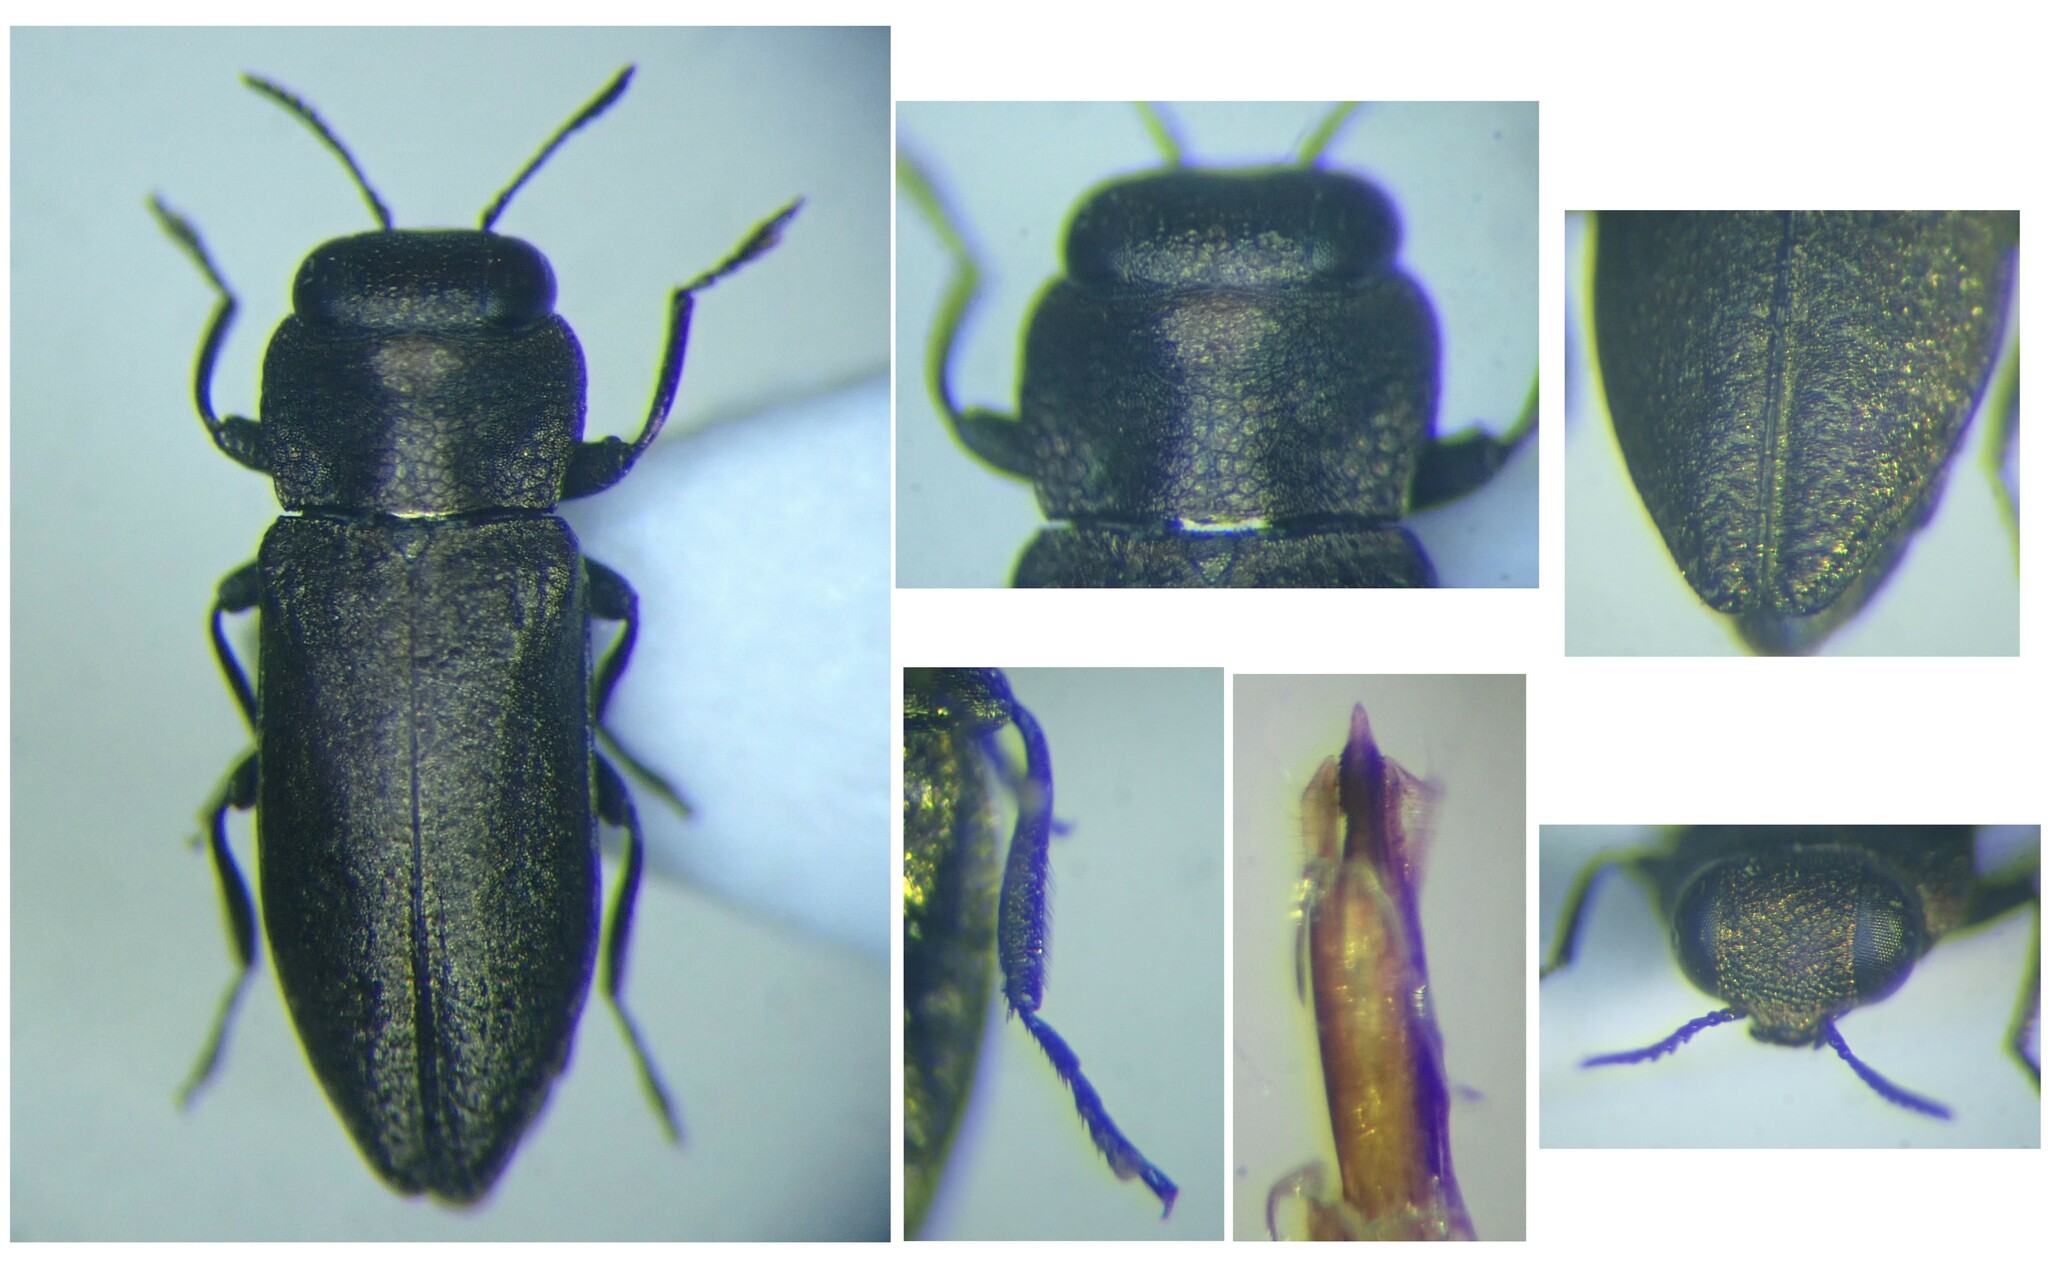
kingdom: Animalia
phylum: Arthropoda
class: Insecta
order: Coleoptera
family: Buprestidae
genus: Anthaxia
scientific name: Anthaxia spinolae
